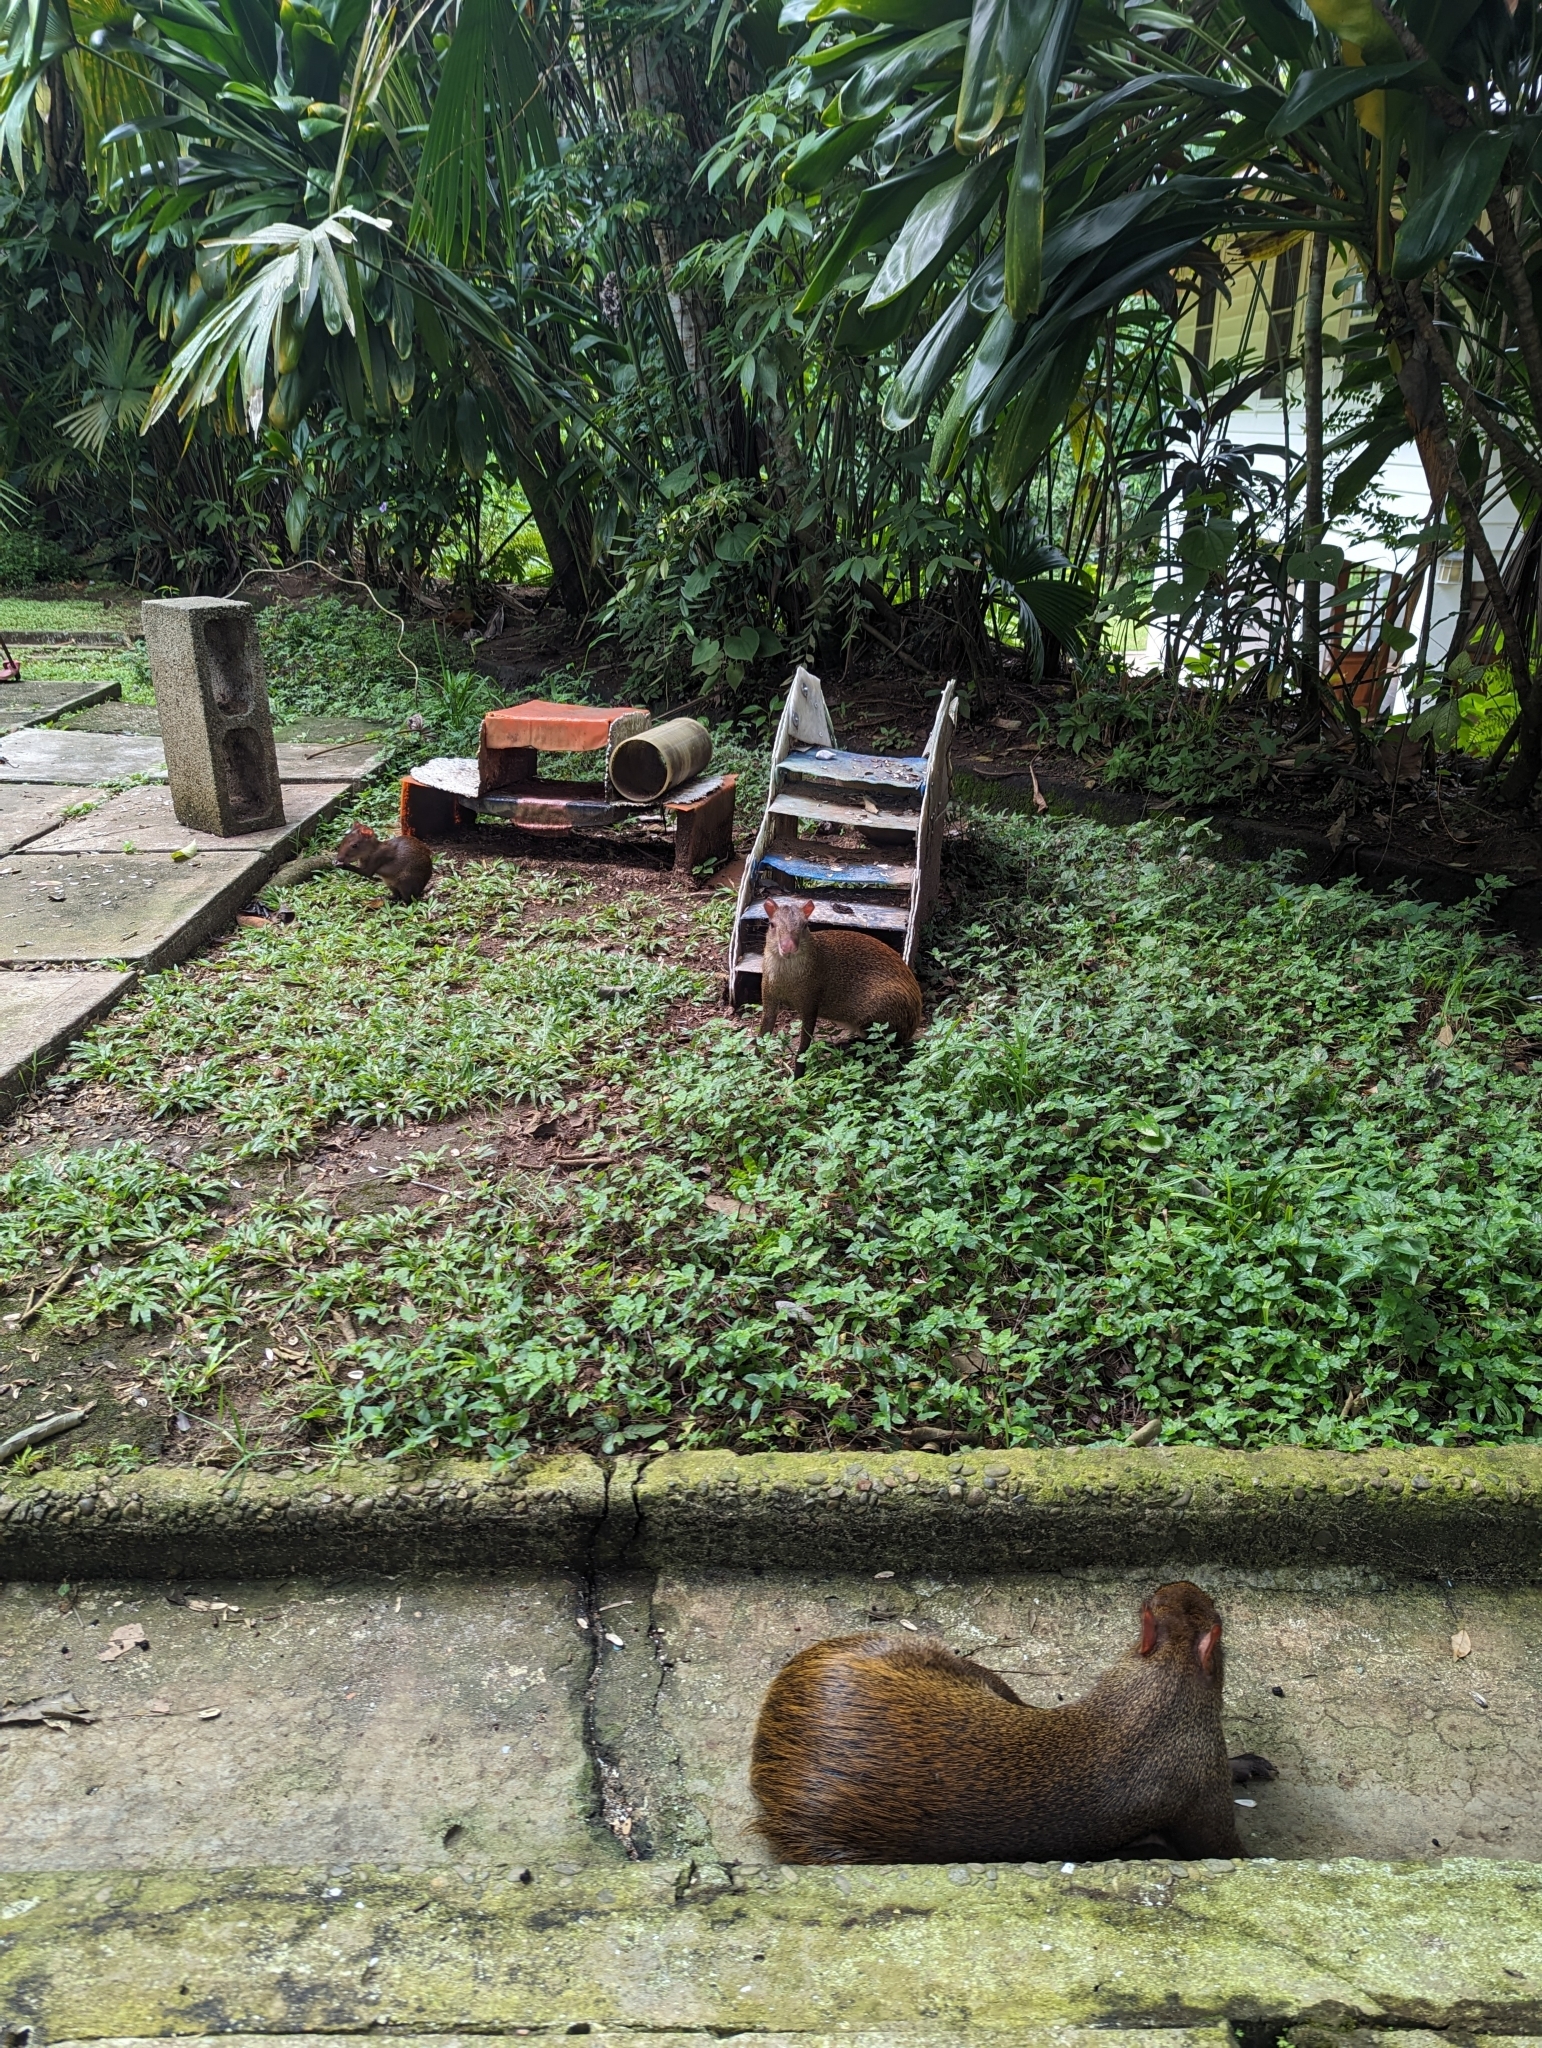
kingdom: Animalia
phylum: Chordata
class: Mammalia
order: Rodentia
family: Dasyproctidae
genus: Dasyprocta
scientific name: Dasyprocta punctata
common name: Central american agouti
